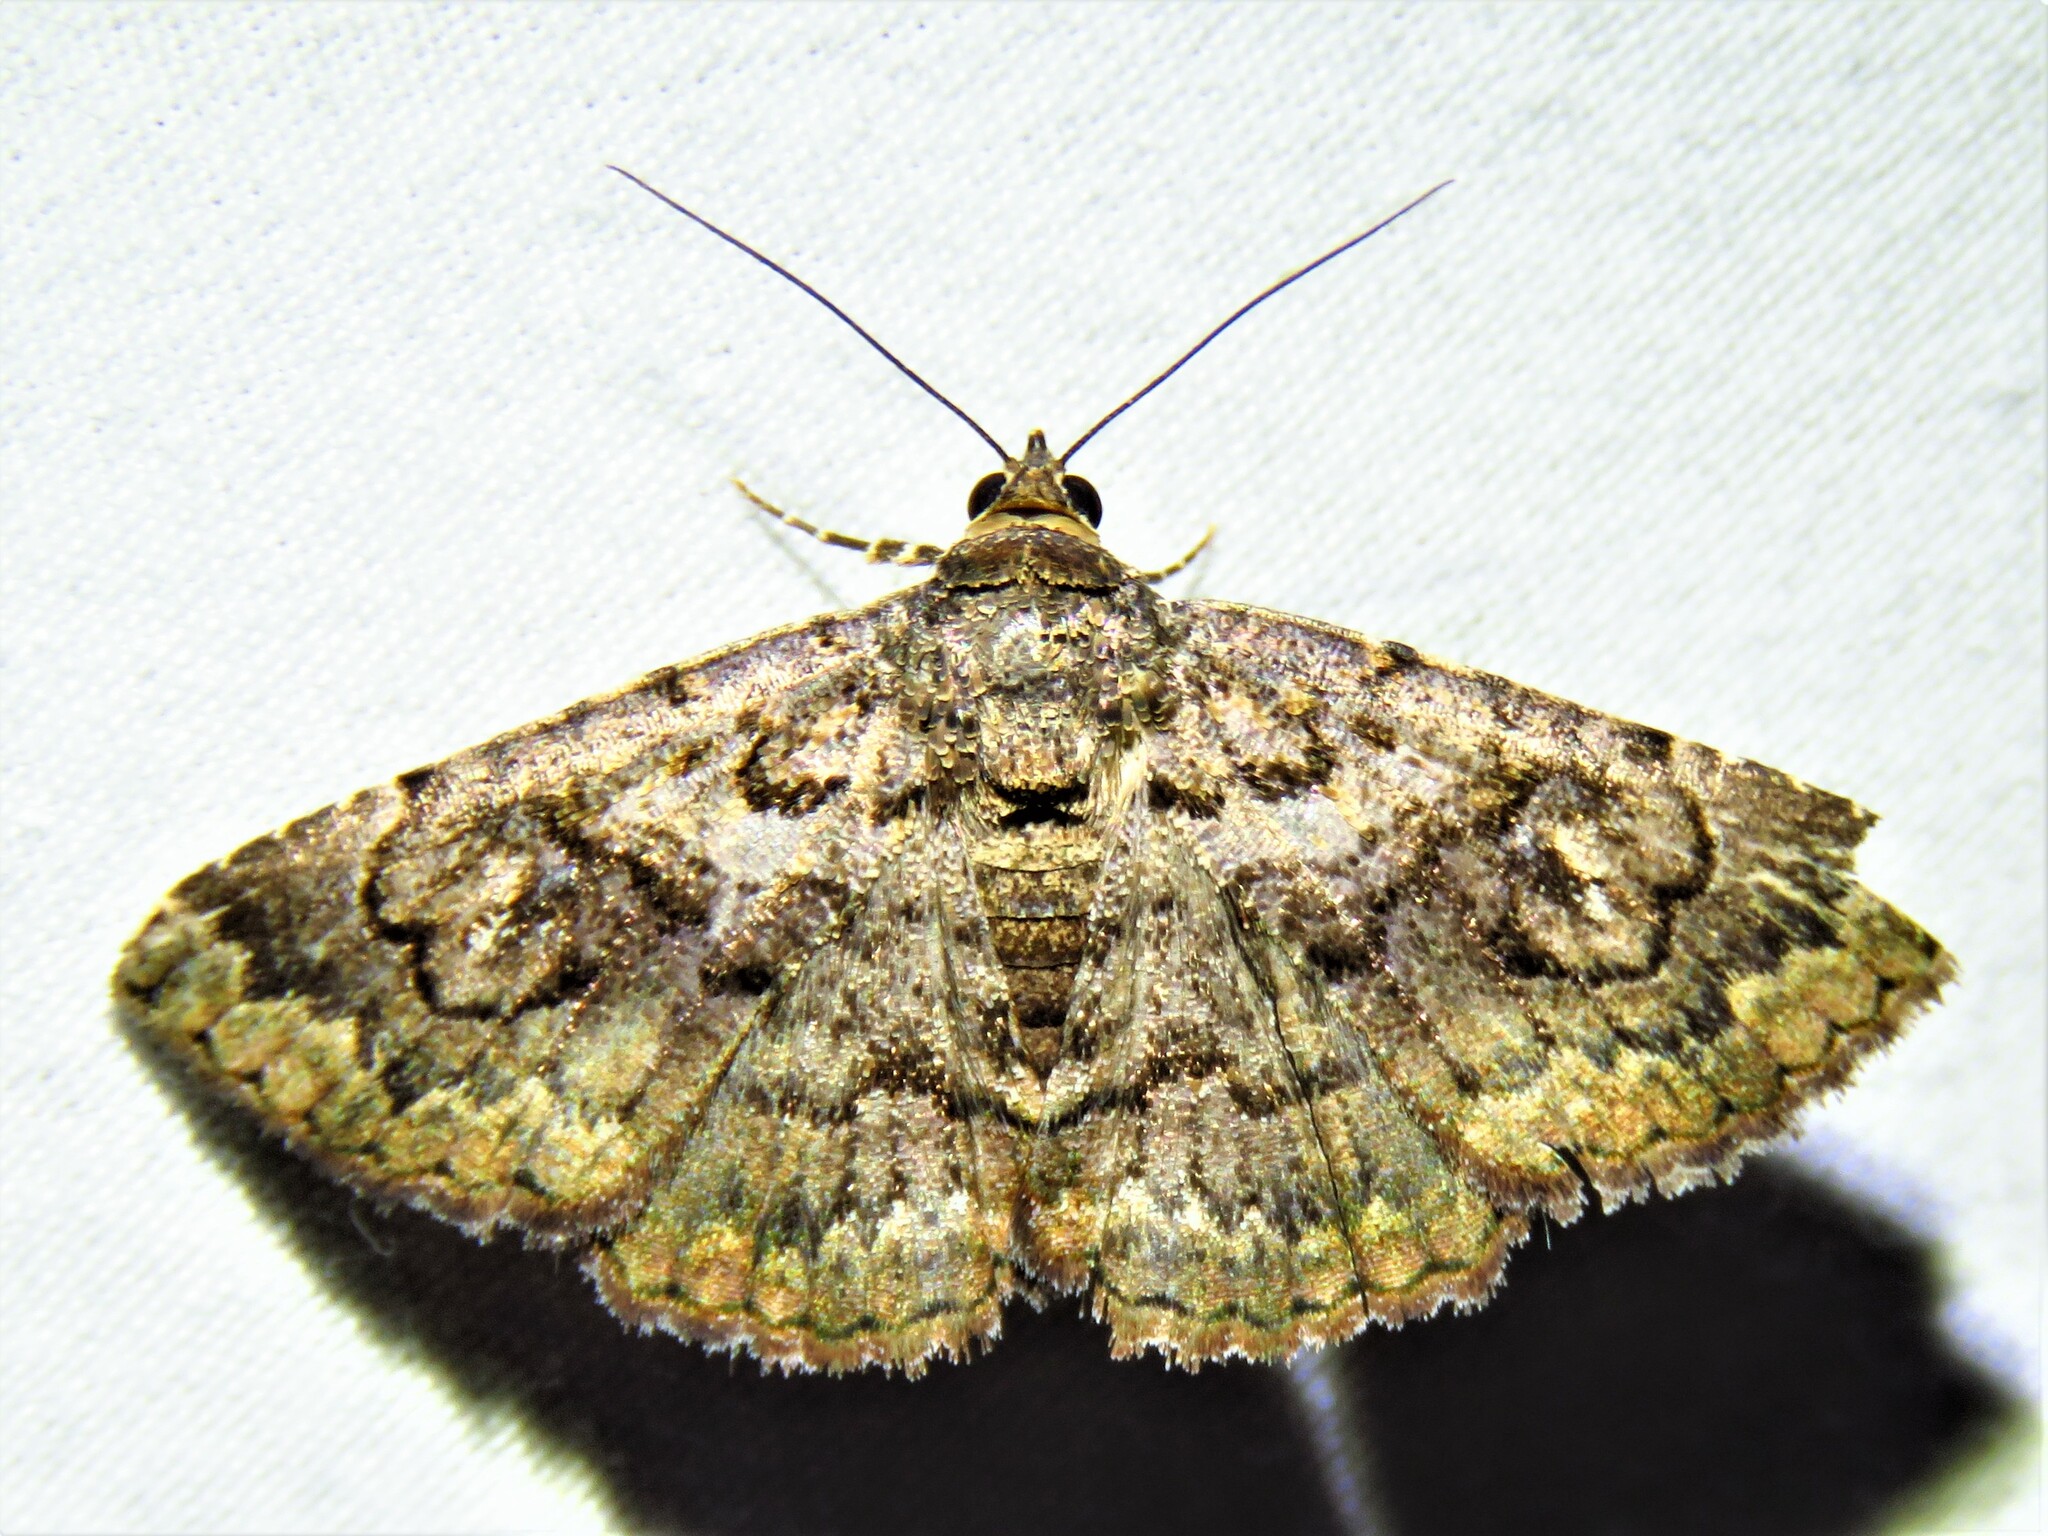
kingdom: Animalia
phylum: Arthropoda
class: Insecta
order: Lepidoptera
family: Erebidae
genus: Toxonprucha
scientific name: Toxonprucha excavata
